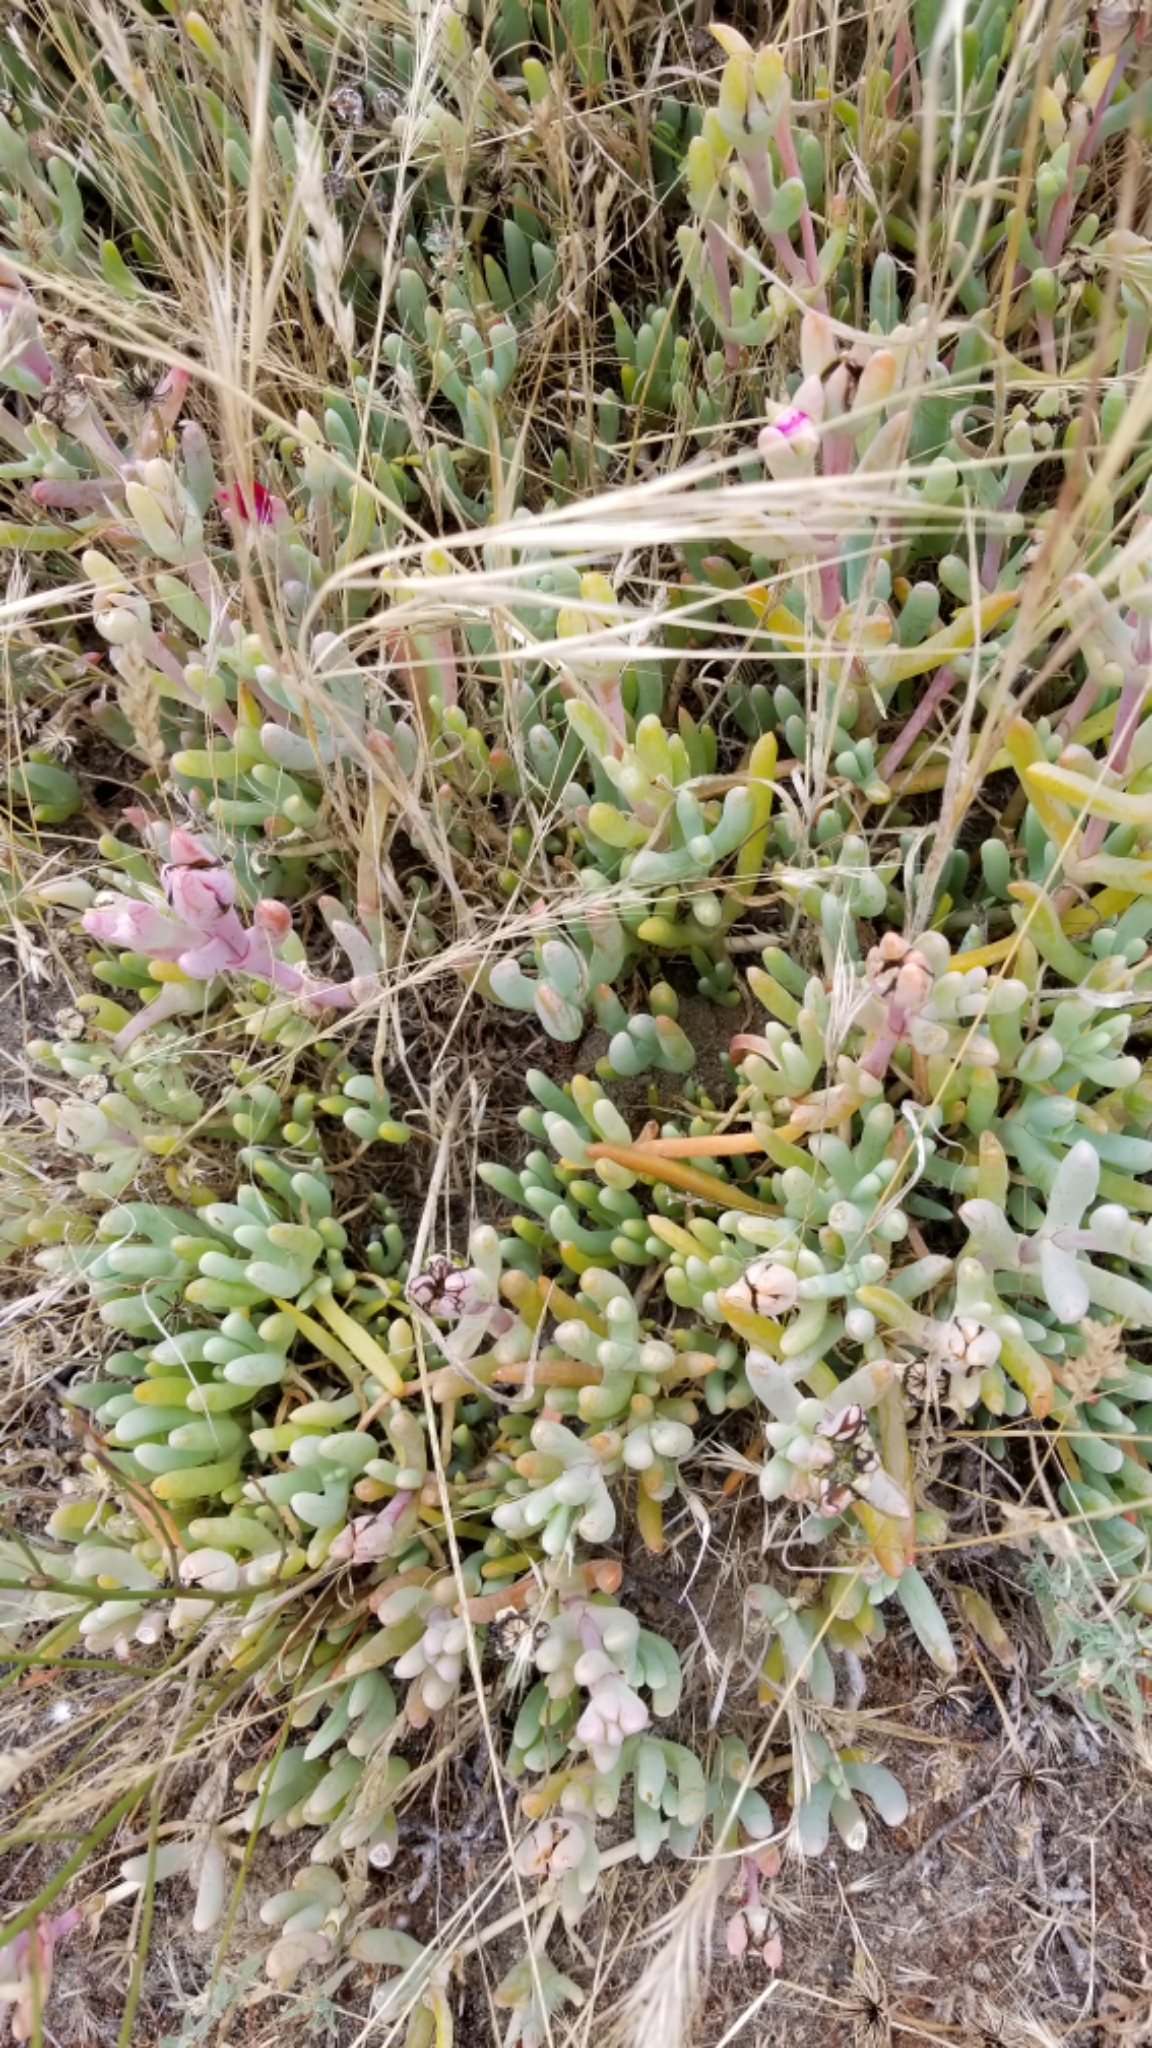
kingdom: Plantae
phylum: Tracheophyta
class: Magnoliopsida
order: Caryophyllales
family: Aizoaceae
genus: Malephora
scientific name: Malephora crocea
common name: Coppery mesemb
